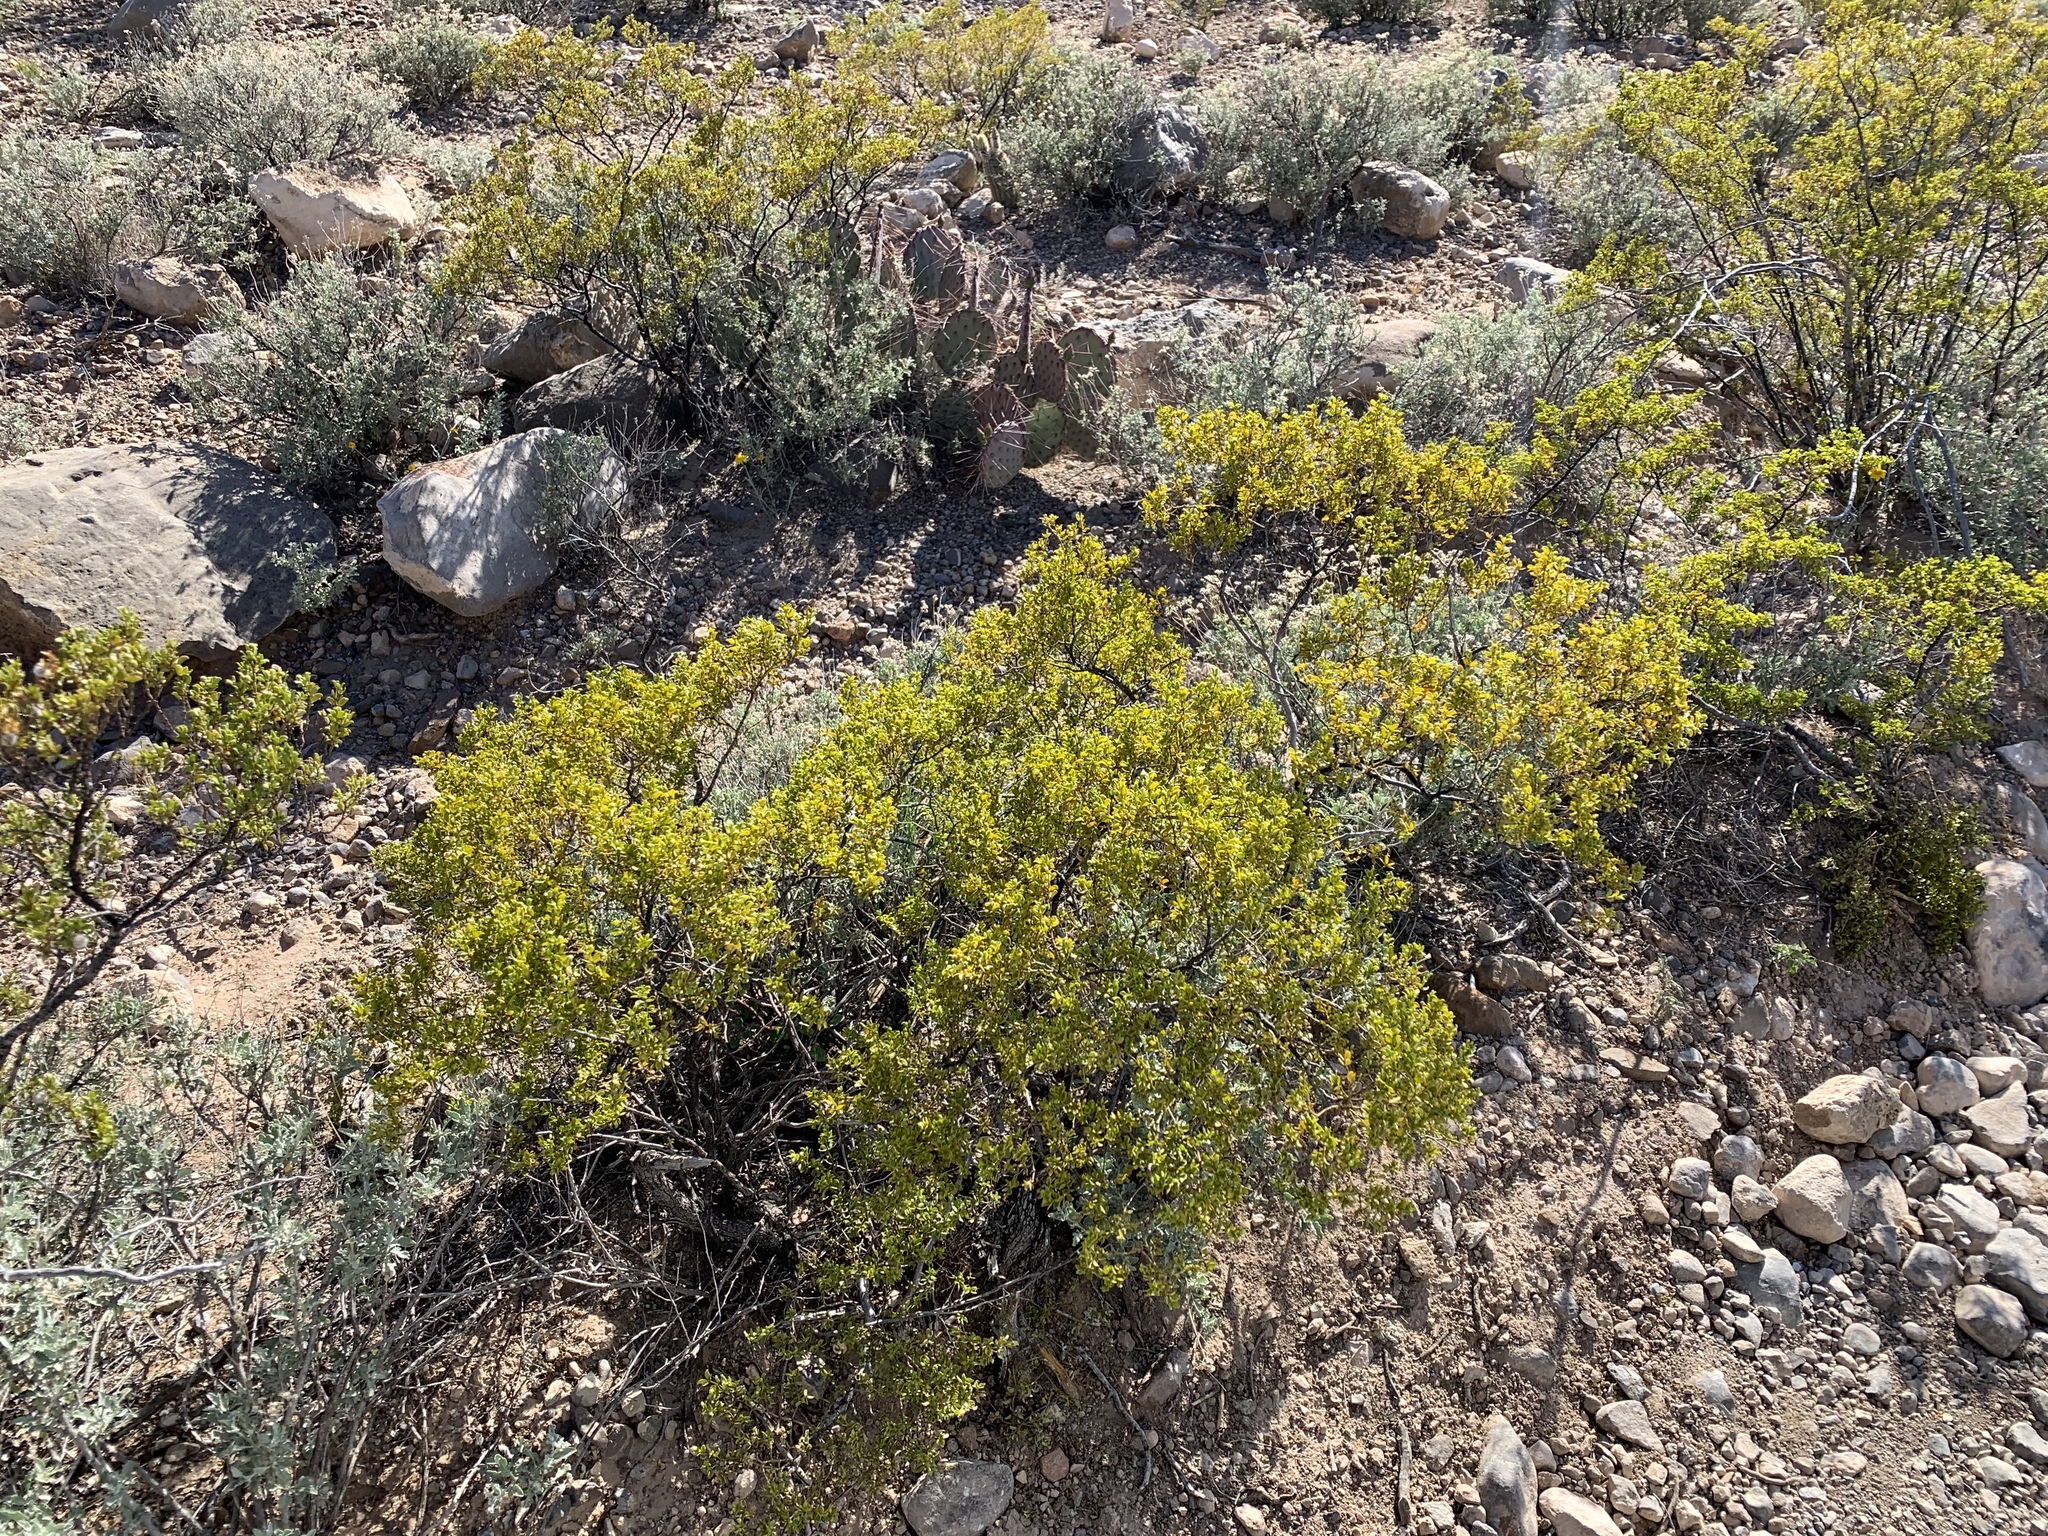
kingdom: Plantae
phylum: Tracheophyta
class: Magnoliopsida
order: Zygophyllales
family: Zygophyllaceae
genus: Larrea
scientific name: Larrea tridentata
